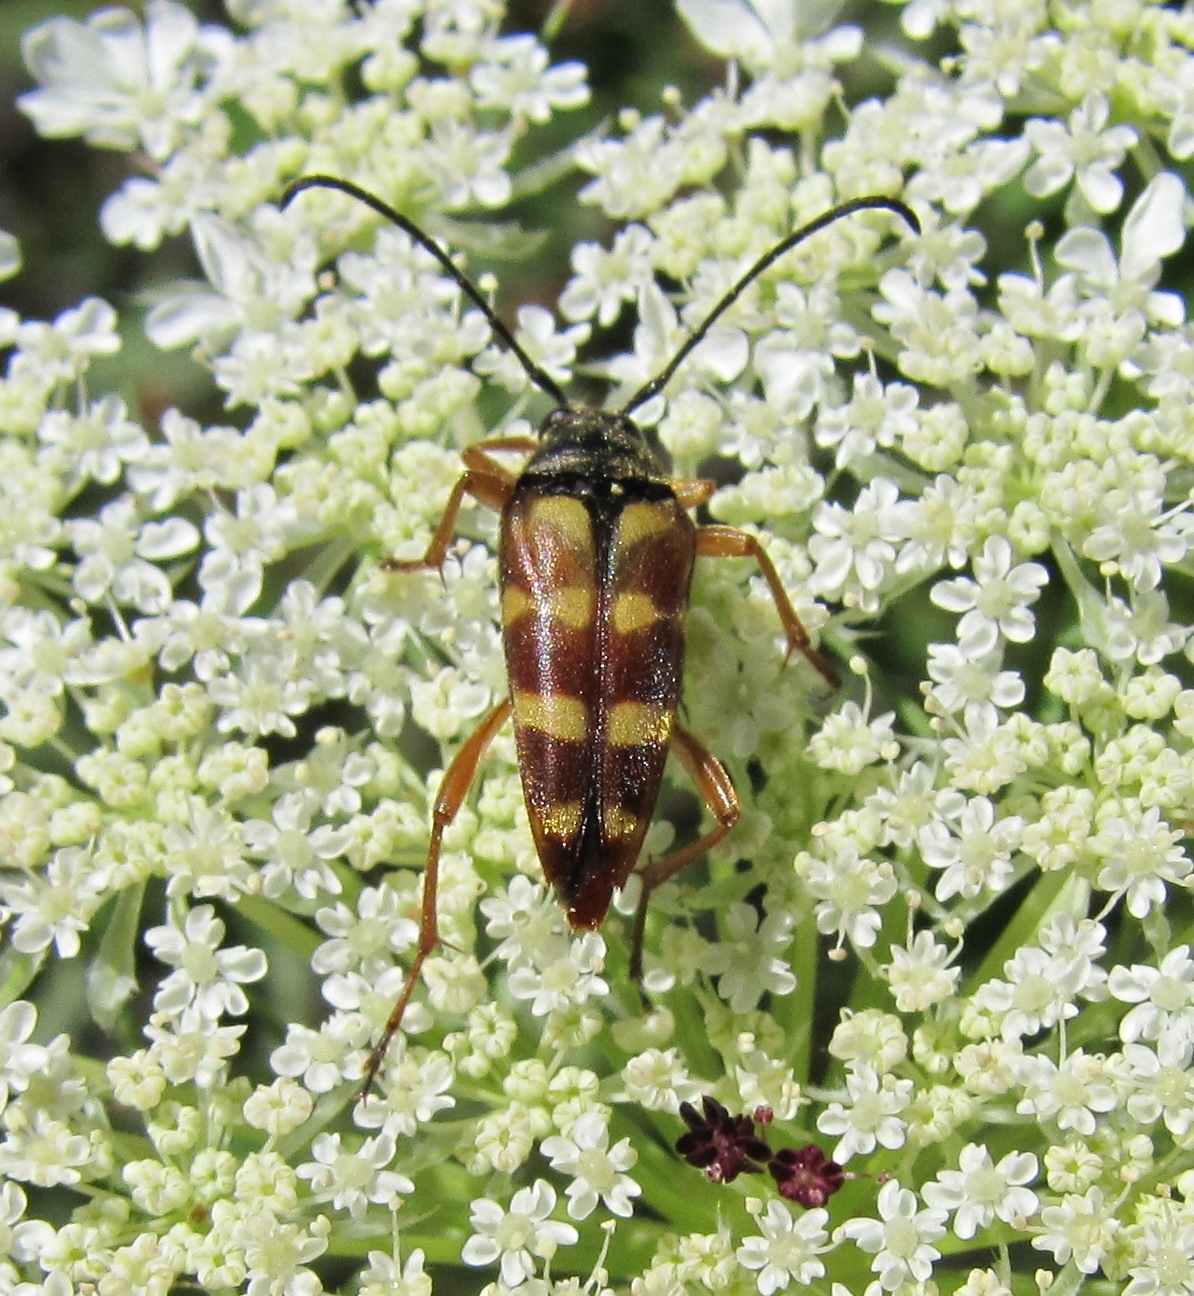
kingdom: Animalia
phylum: Arthropoda
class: Insecta
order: Coleoptera
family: Cerambycidae
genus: Typocerus
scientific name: Typocerus velutinus
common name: Banded longhorn beetle
